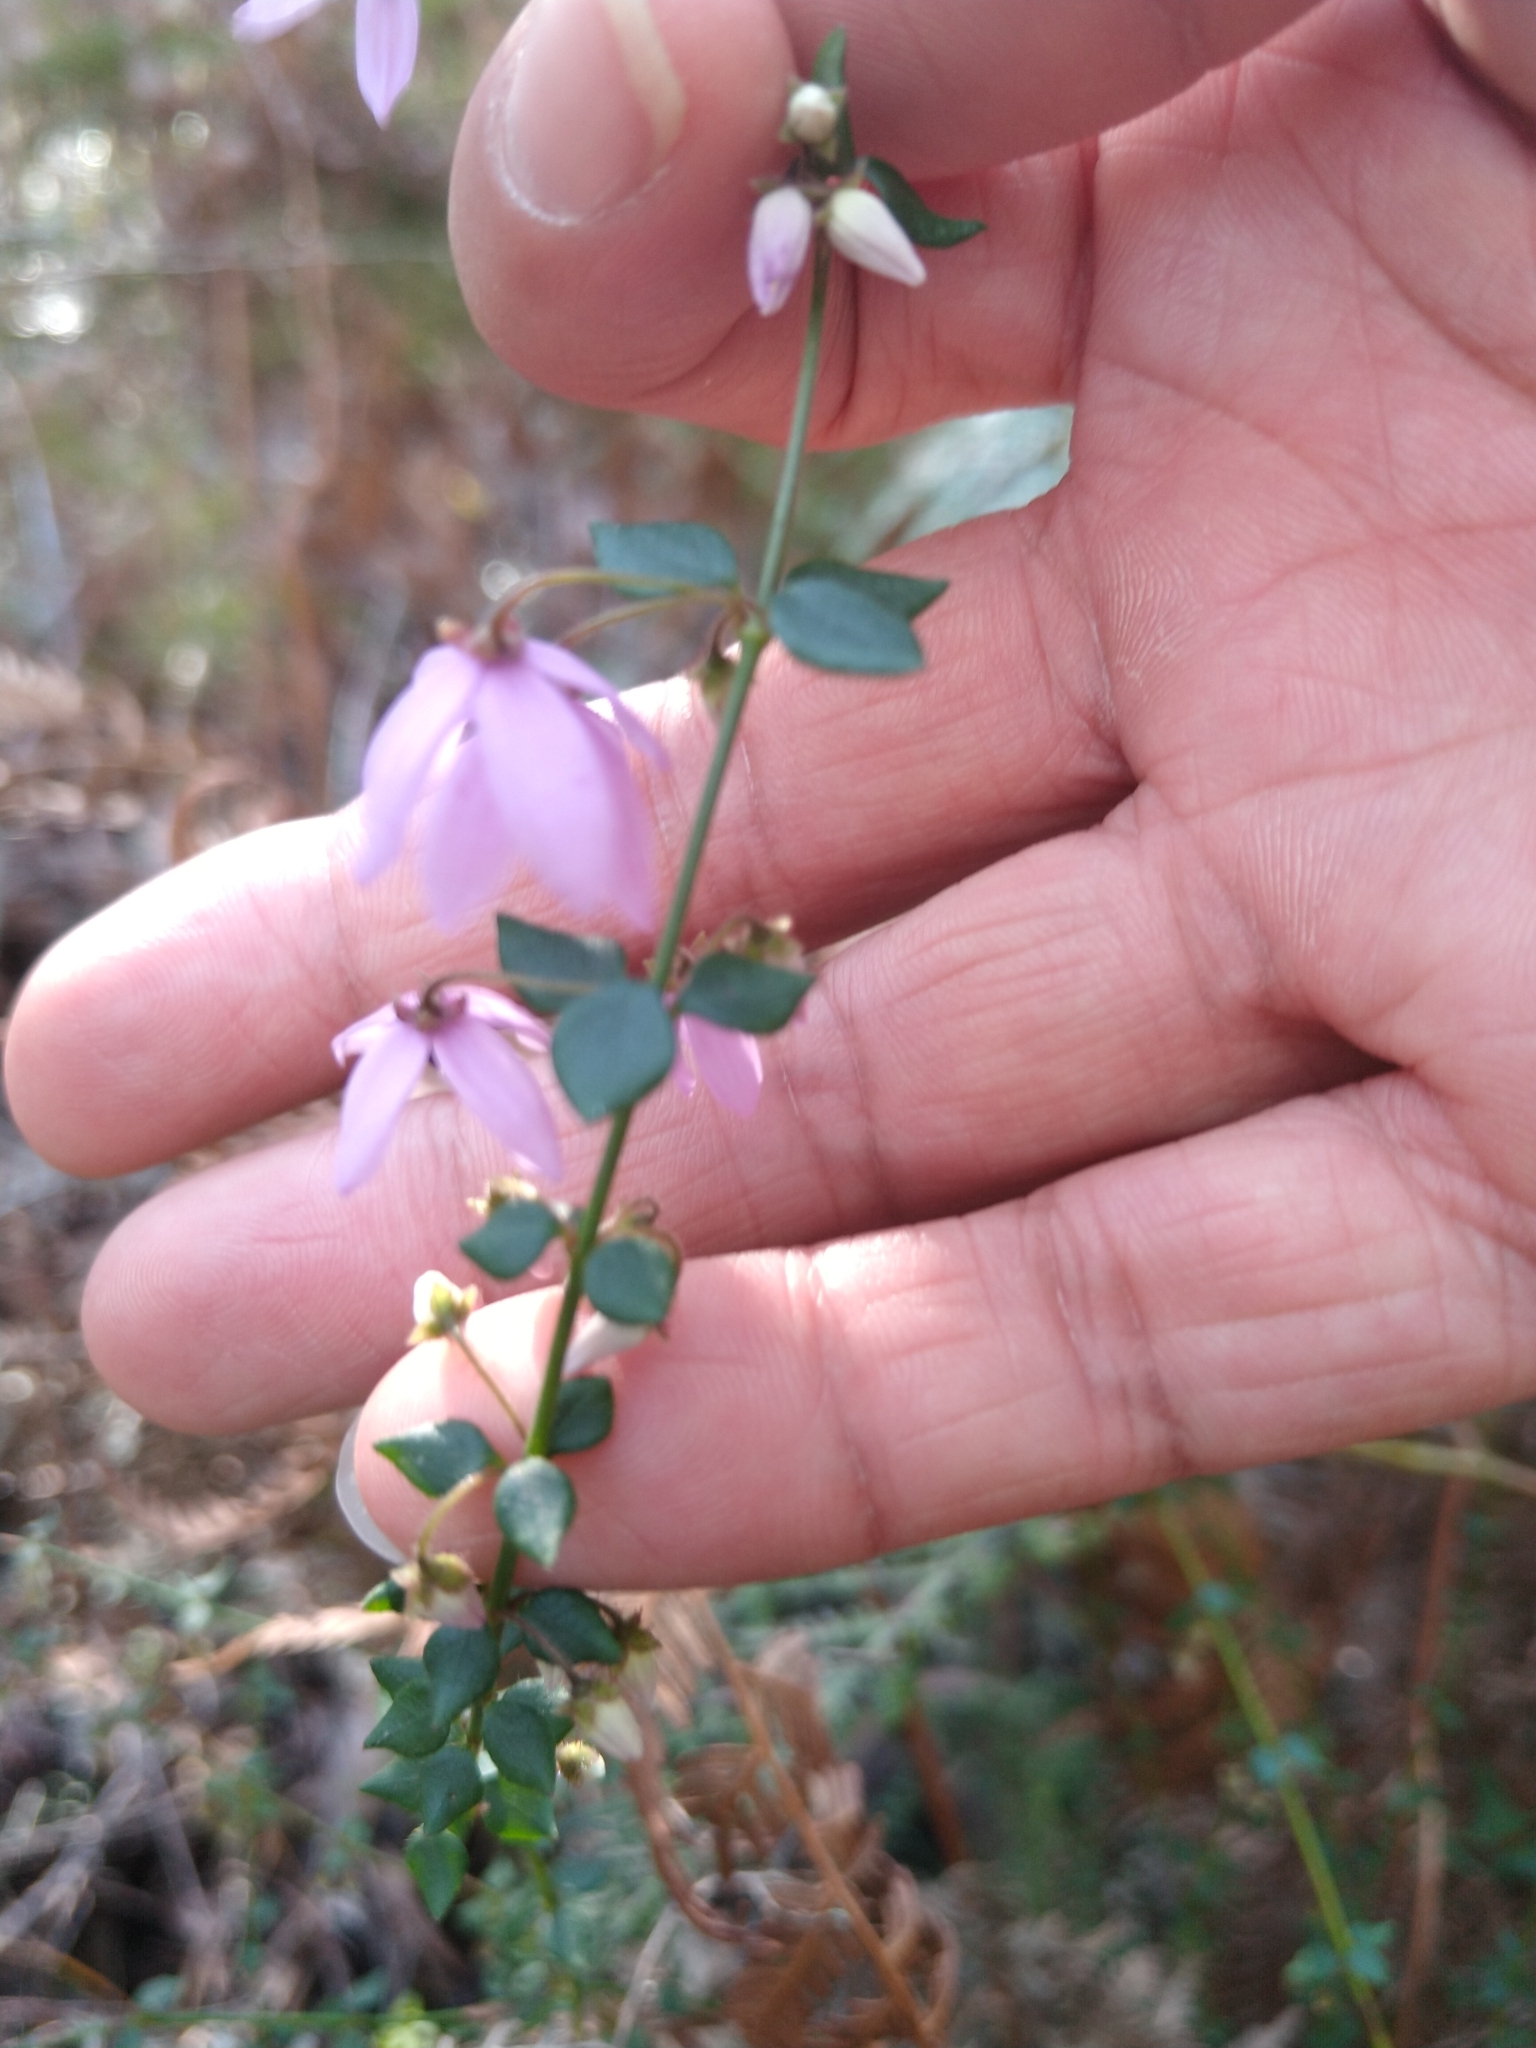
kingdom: Plantae
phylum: Tracheophyta
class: Magnoliopsida
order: Oxalidales
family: Elaeocarpaceae
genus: Tetratheca
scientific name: Tetratheca ciliata
